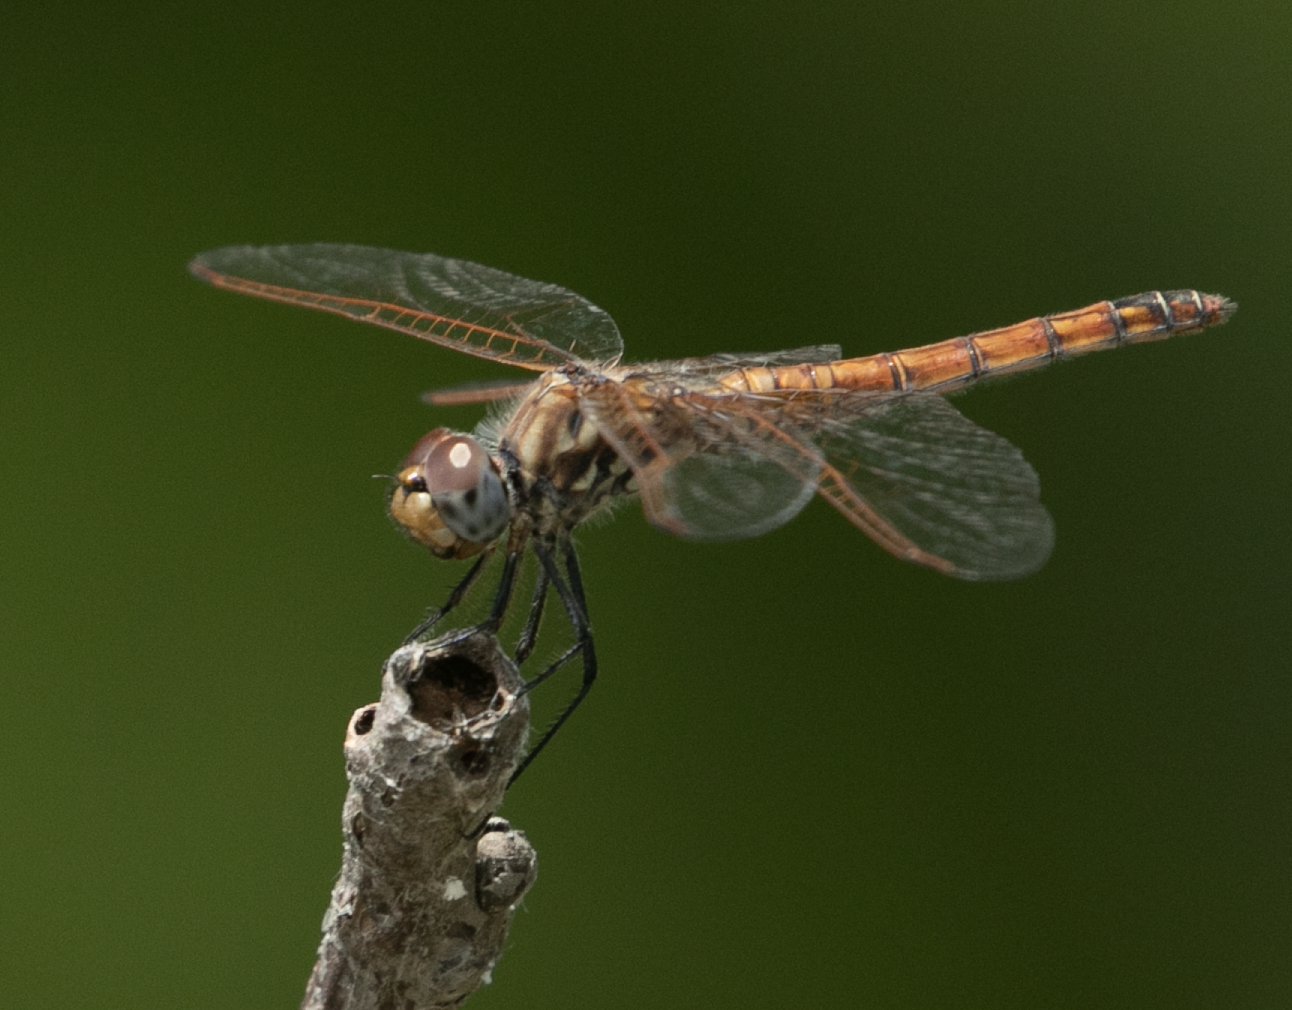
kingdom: Animalia
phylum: Arthropoda
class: Insecta
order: Odonata
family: Libellulidae
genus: Trithemis
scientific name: Trithemis annulata
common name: Violet dropwing
